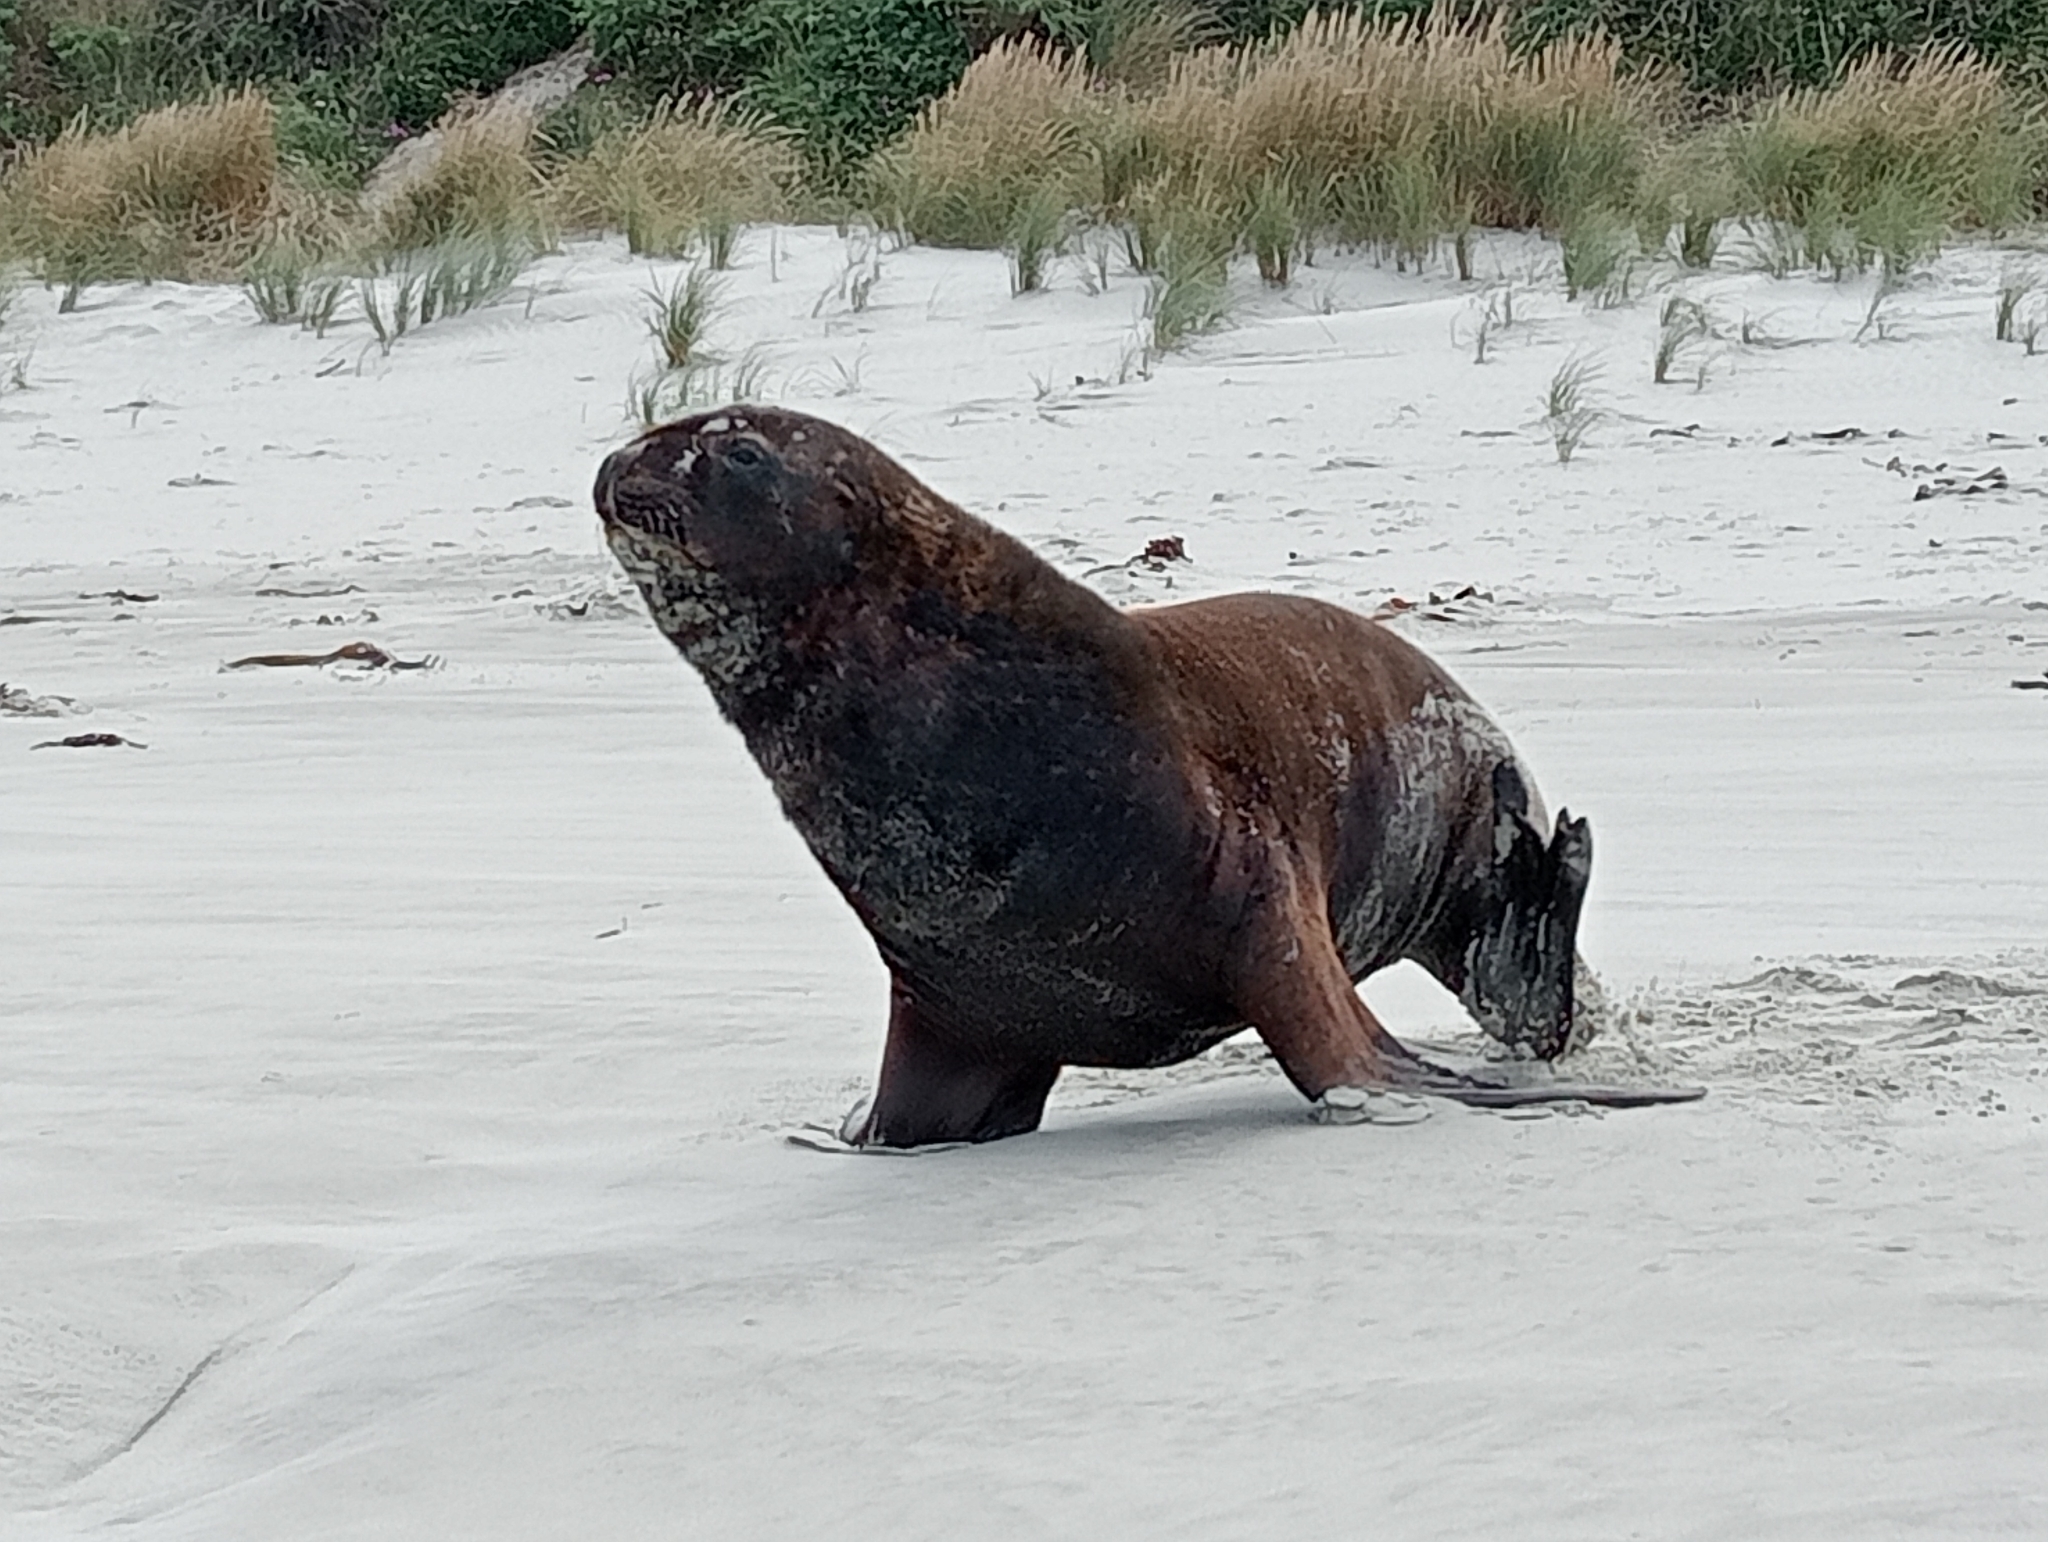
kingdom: Animalia
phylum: Chordata
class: Mammalia
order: Carnivora
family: Otariidae
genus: Phocarctos
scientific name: Phocarctos hookeri
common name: New zealand sea lion
